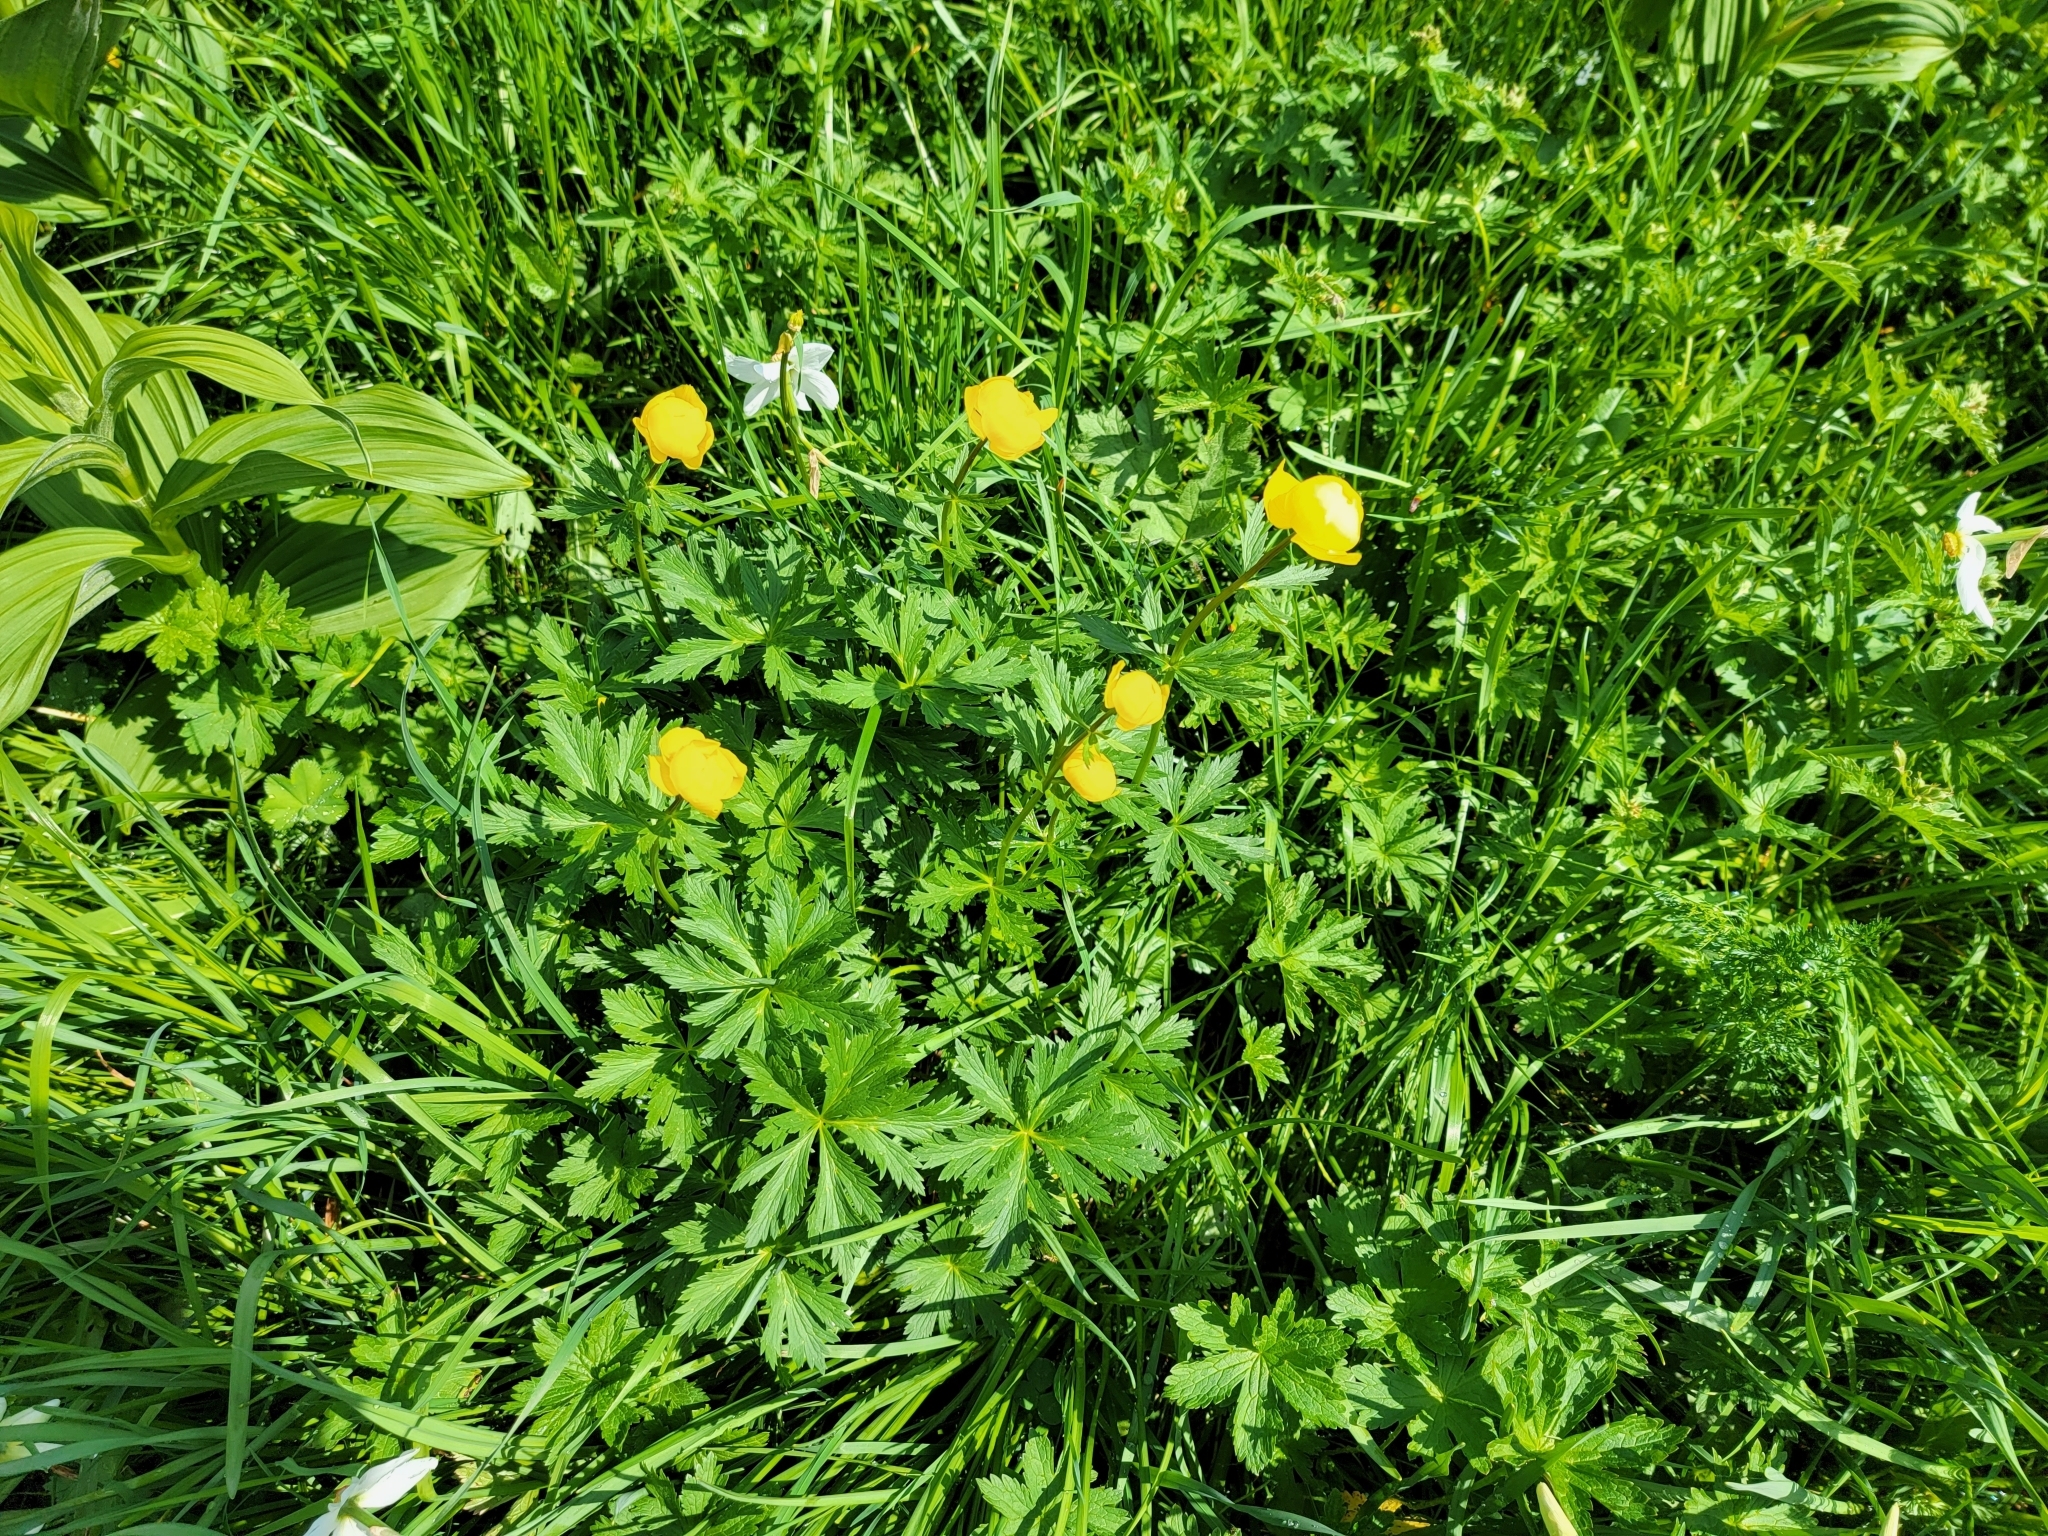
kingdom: Plantae
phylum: Tracheophyta
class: Magnoliopsida
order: Ranunculales
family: Ranunculaceae
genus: Trollius
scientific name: Trollius europaeus
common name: European globeflower
